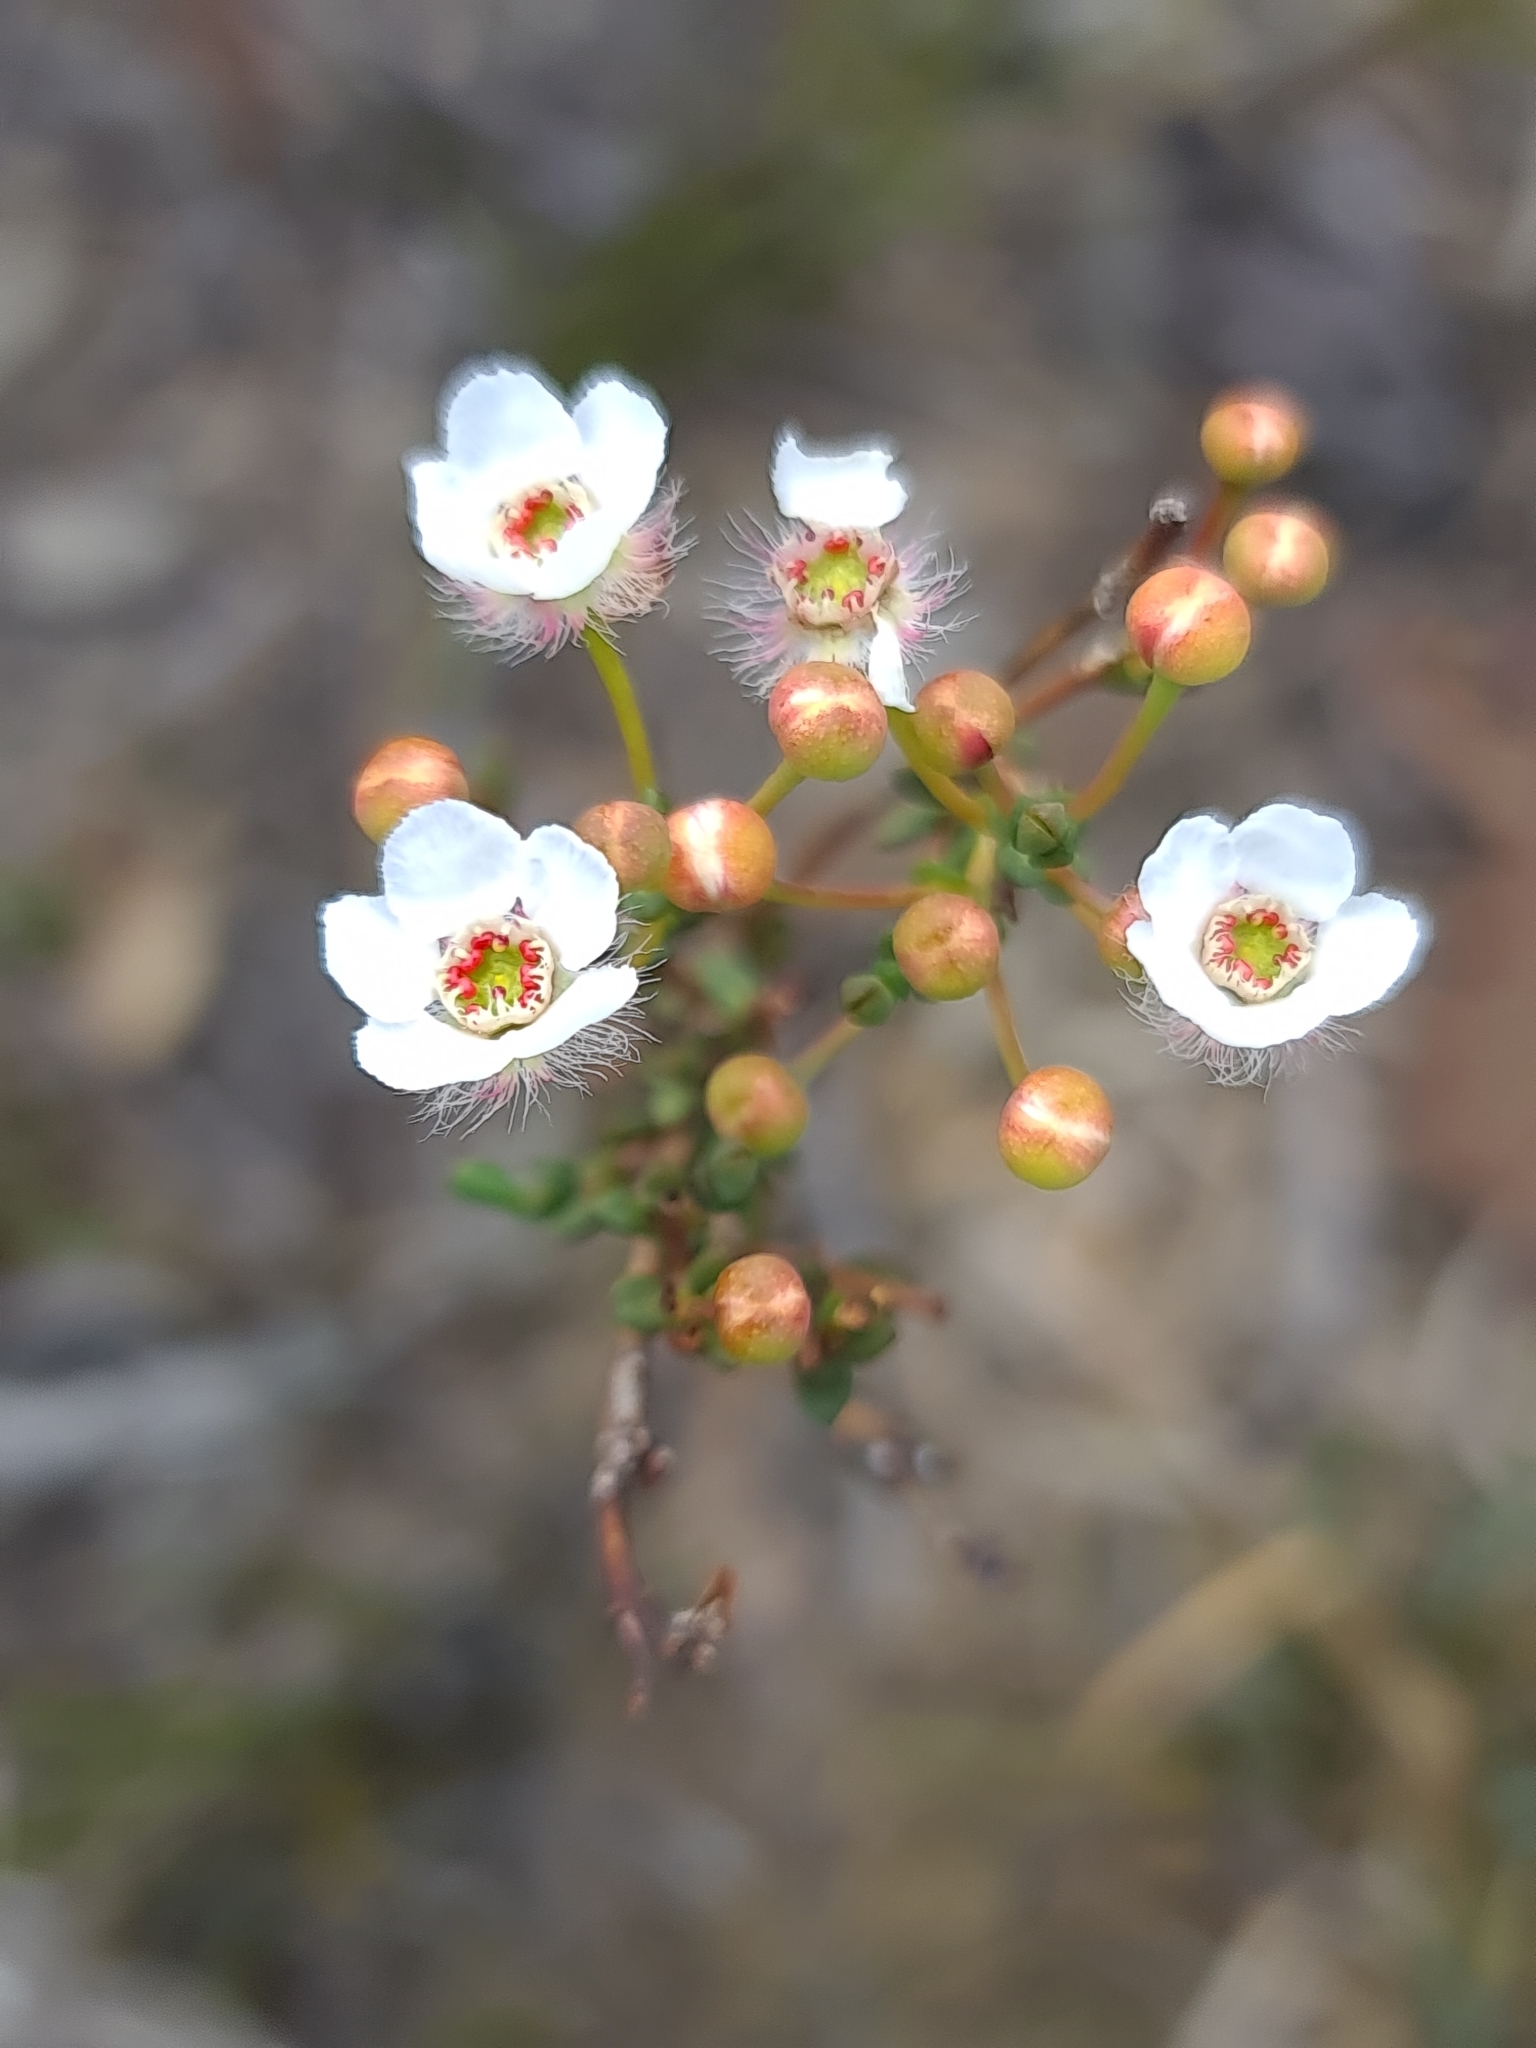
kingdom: Plantae
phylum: Tracheophyta
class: Magnoliopsida
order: Myrtales
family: Myrtaceae
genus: Verticordia
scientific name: Verticordia habrantha
